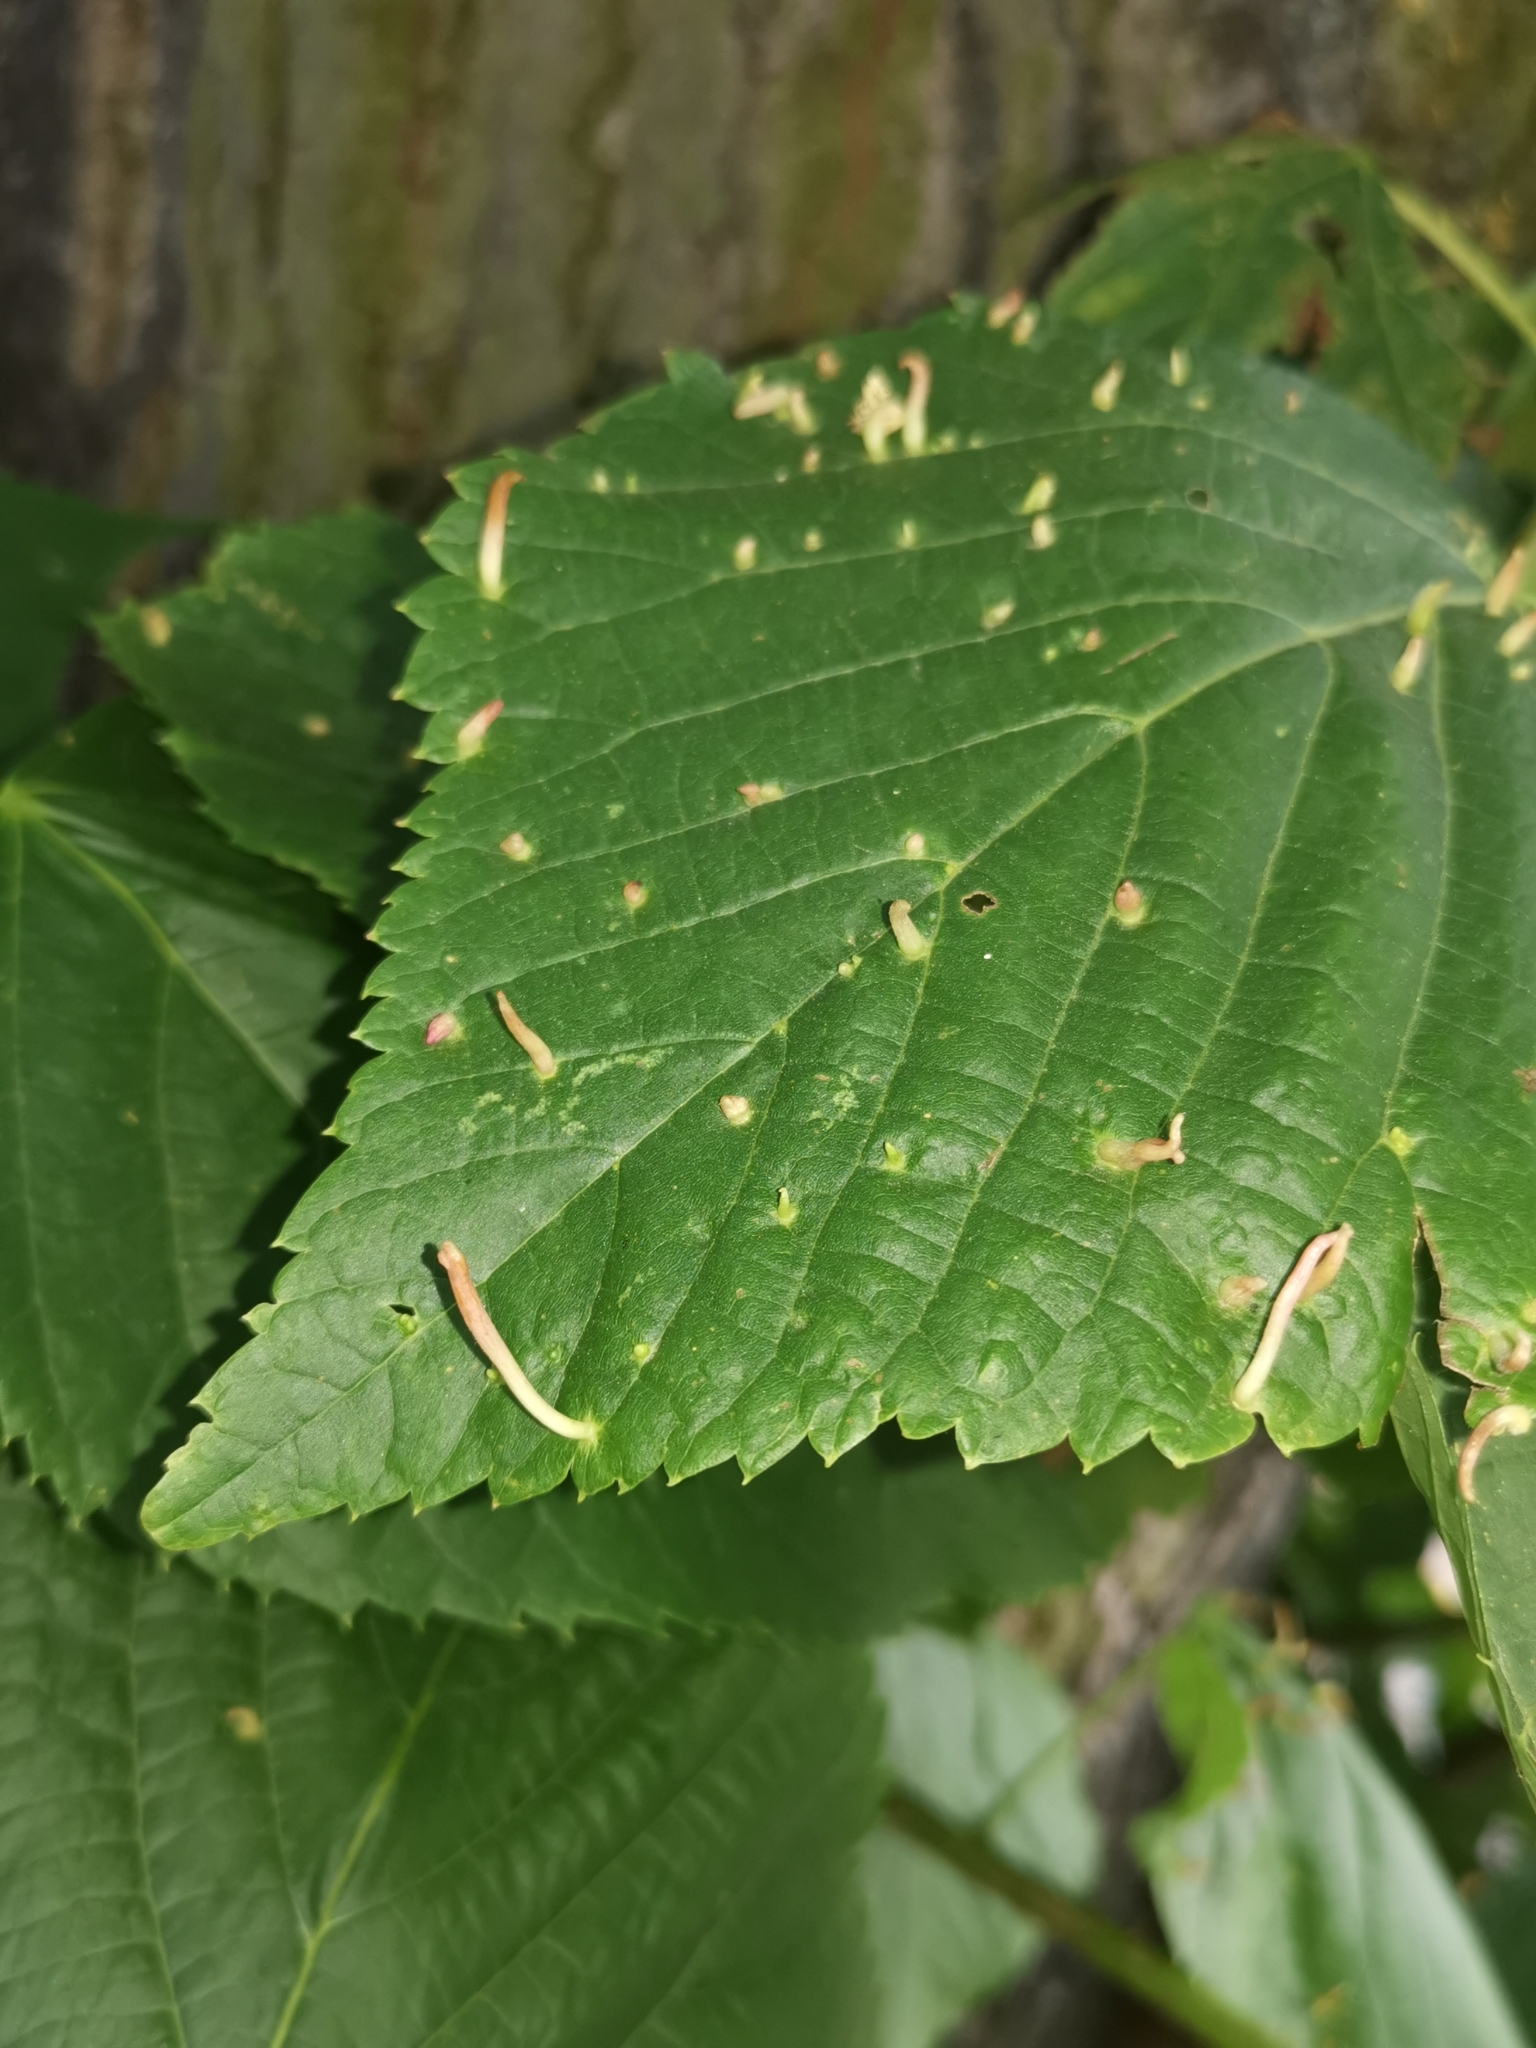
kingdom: Animalia
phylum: Arthropoda
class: Arachnida
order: Trombidiformes
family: Eriophyidae
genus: Eriophyes
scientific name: Eriophyes tiliae
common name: Red nail gall mite
